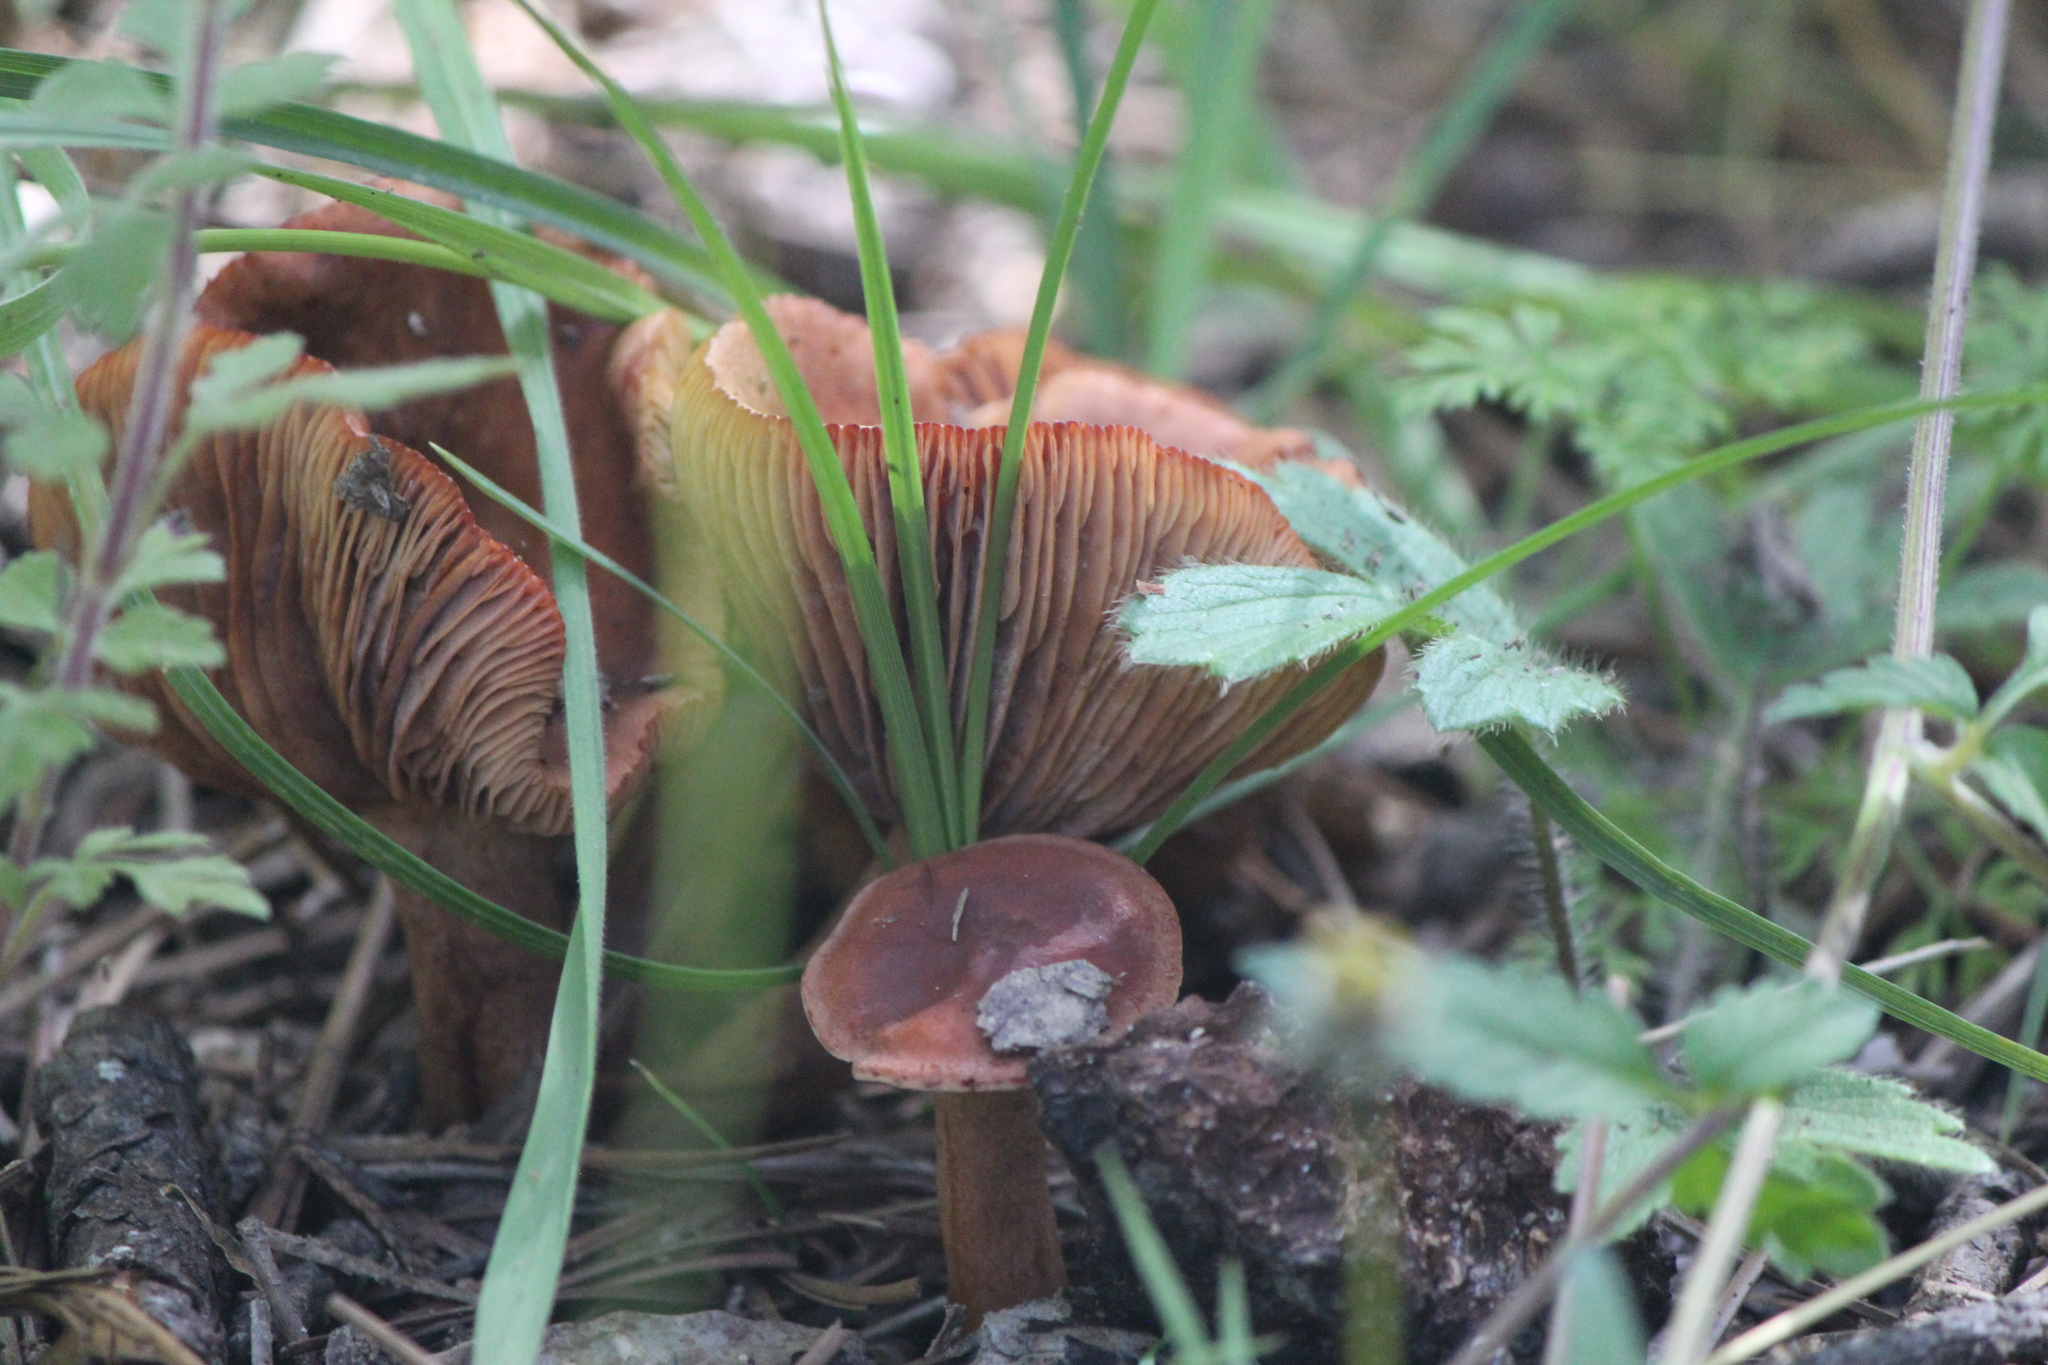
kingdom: Fungi
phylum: Basidiomycota
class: Agaricomycetes
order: Russulales
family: Russulaceae
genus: Lactarius
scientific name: Lactarius rufus
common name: Rufous milk-cap
